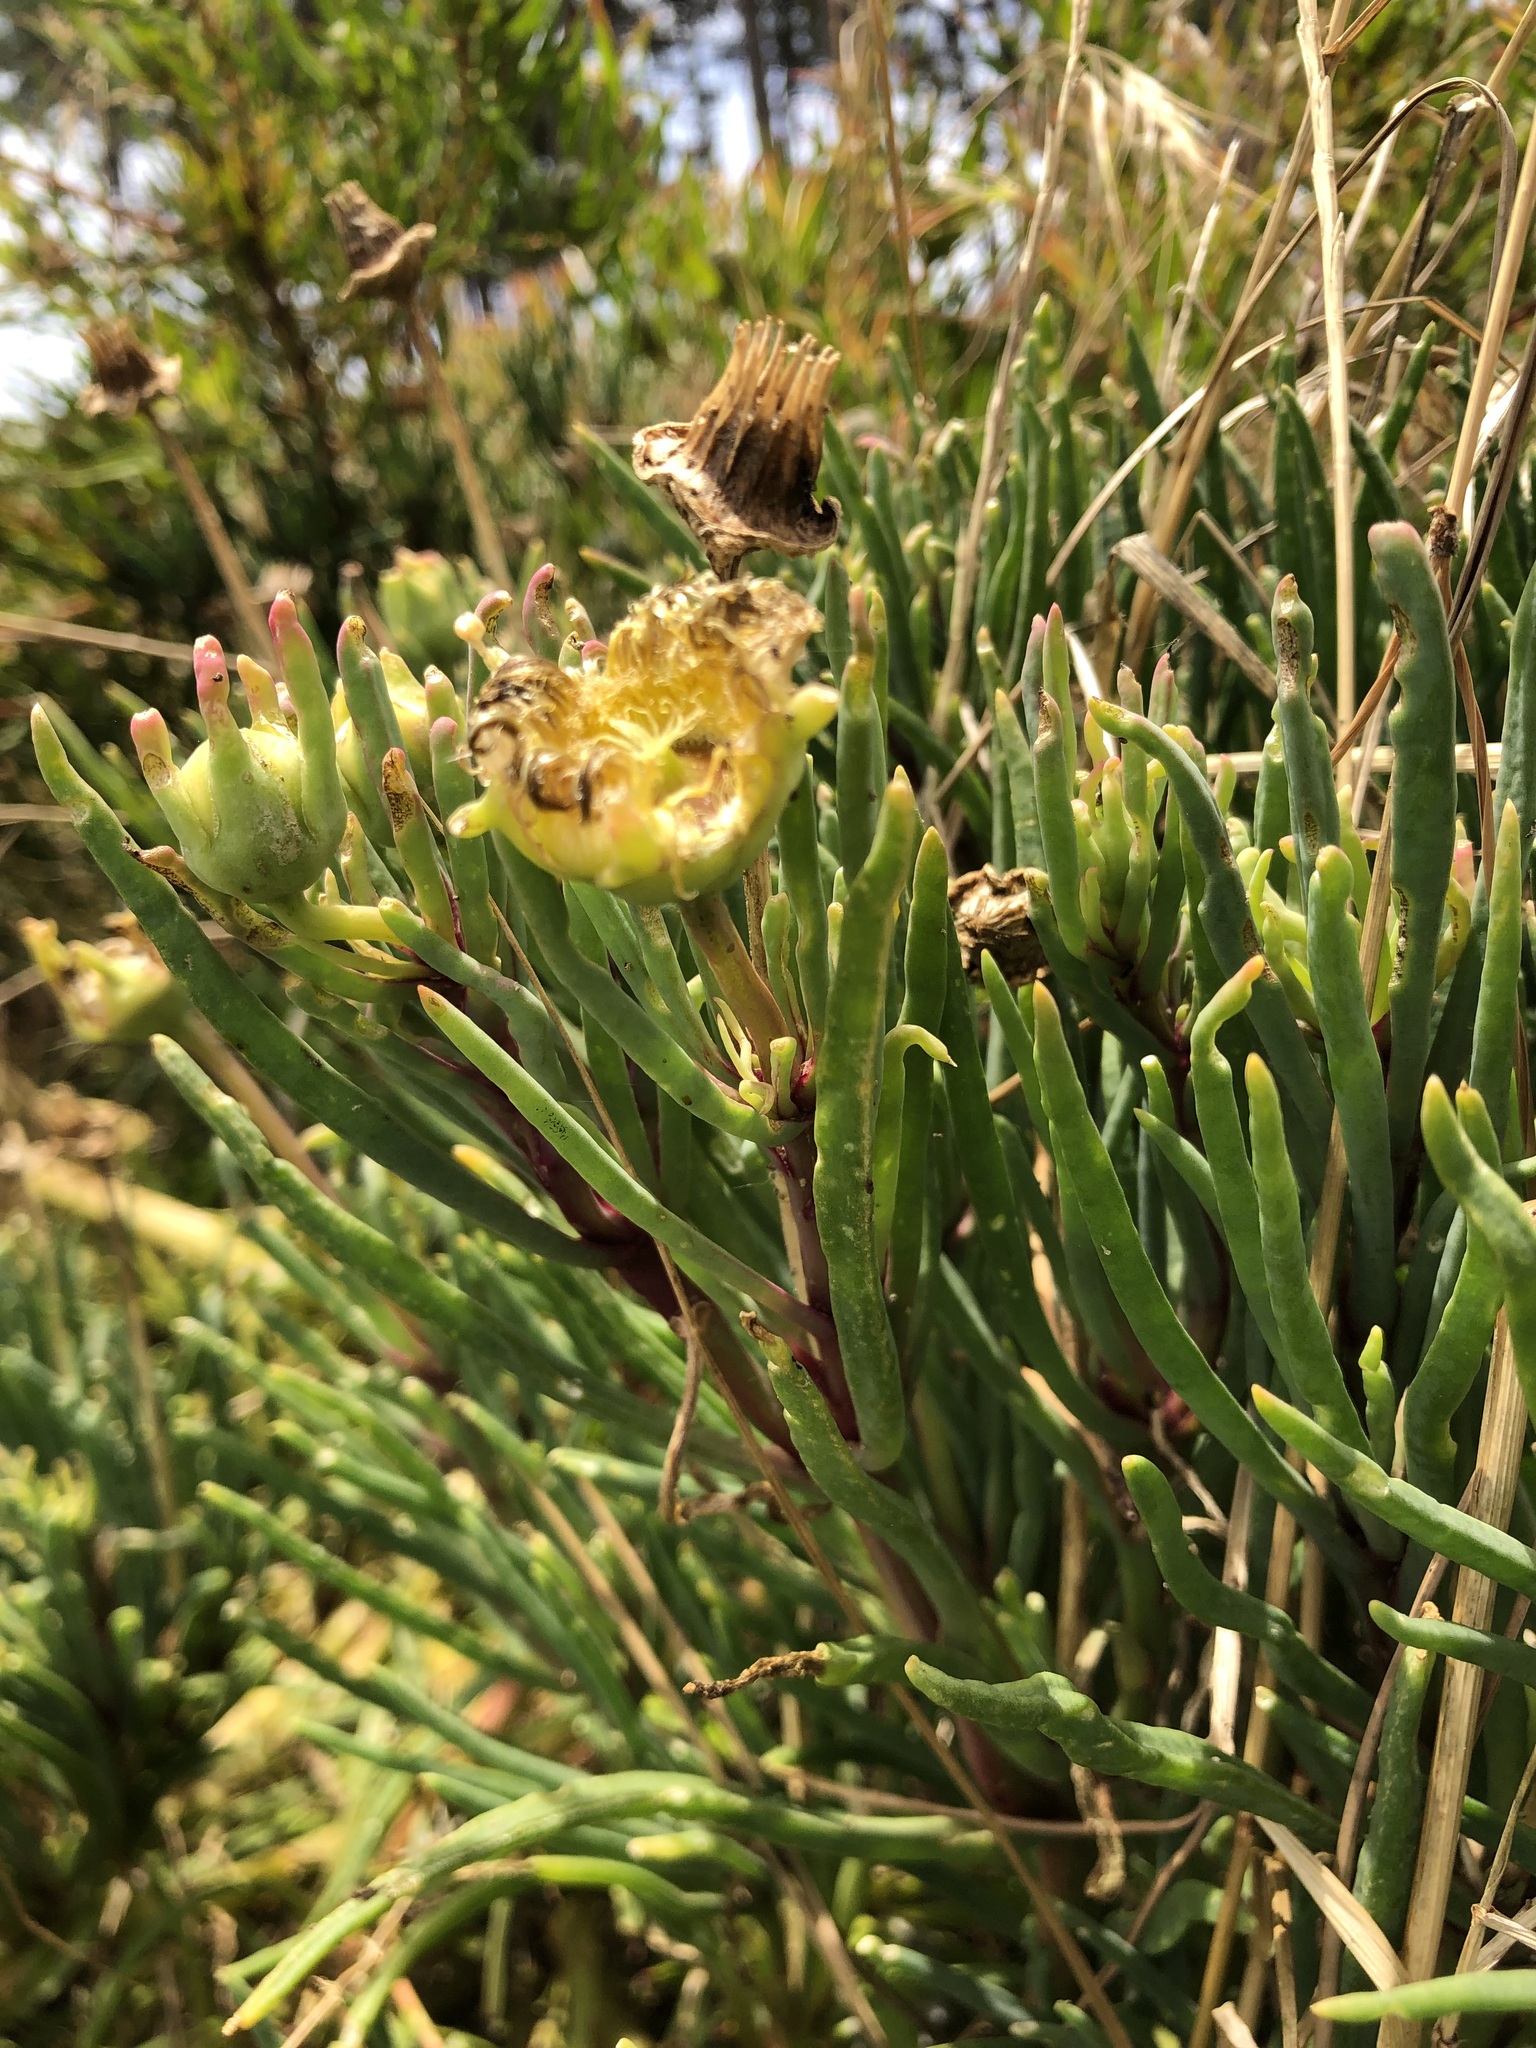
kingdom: Plantae
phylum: Tracheophyta
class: Magnoliopsida
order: Caryophyllales
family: Aizoaceae
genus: Conicosia
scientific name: Conicosia pugioniformis
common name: Narrow-leaved iceplant
